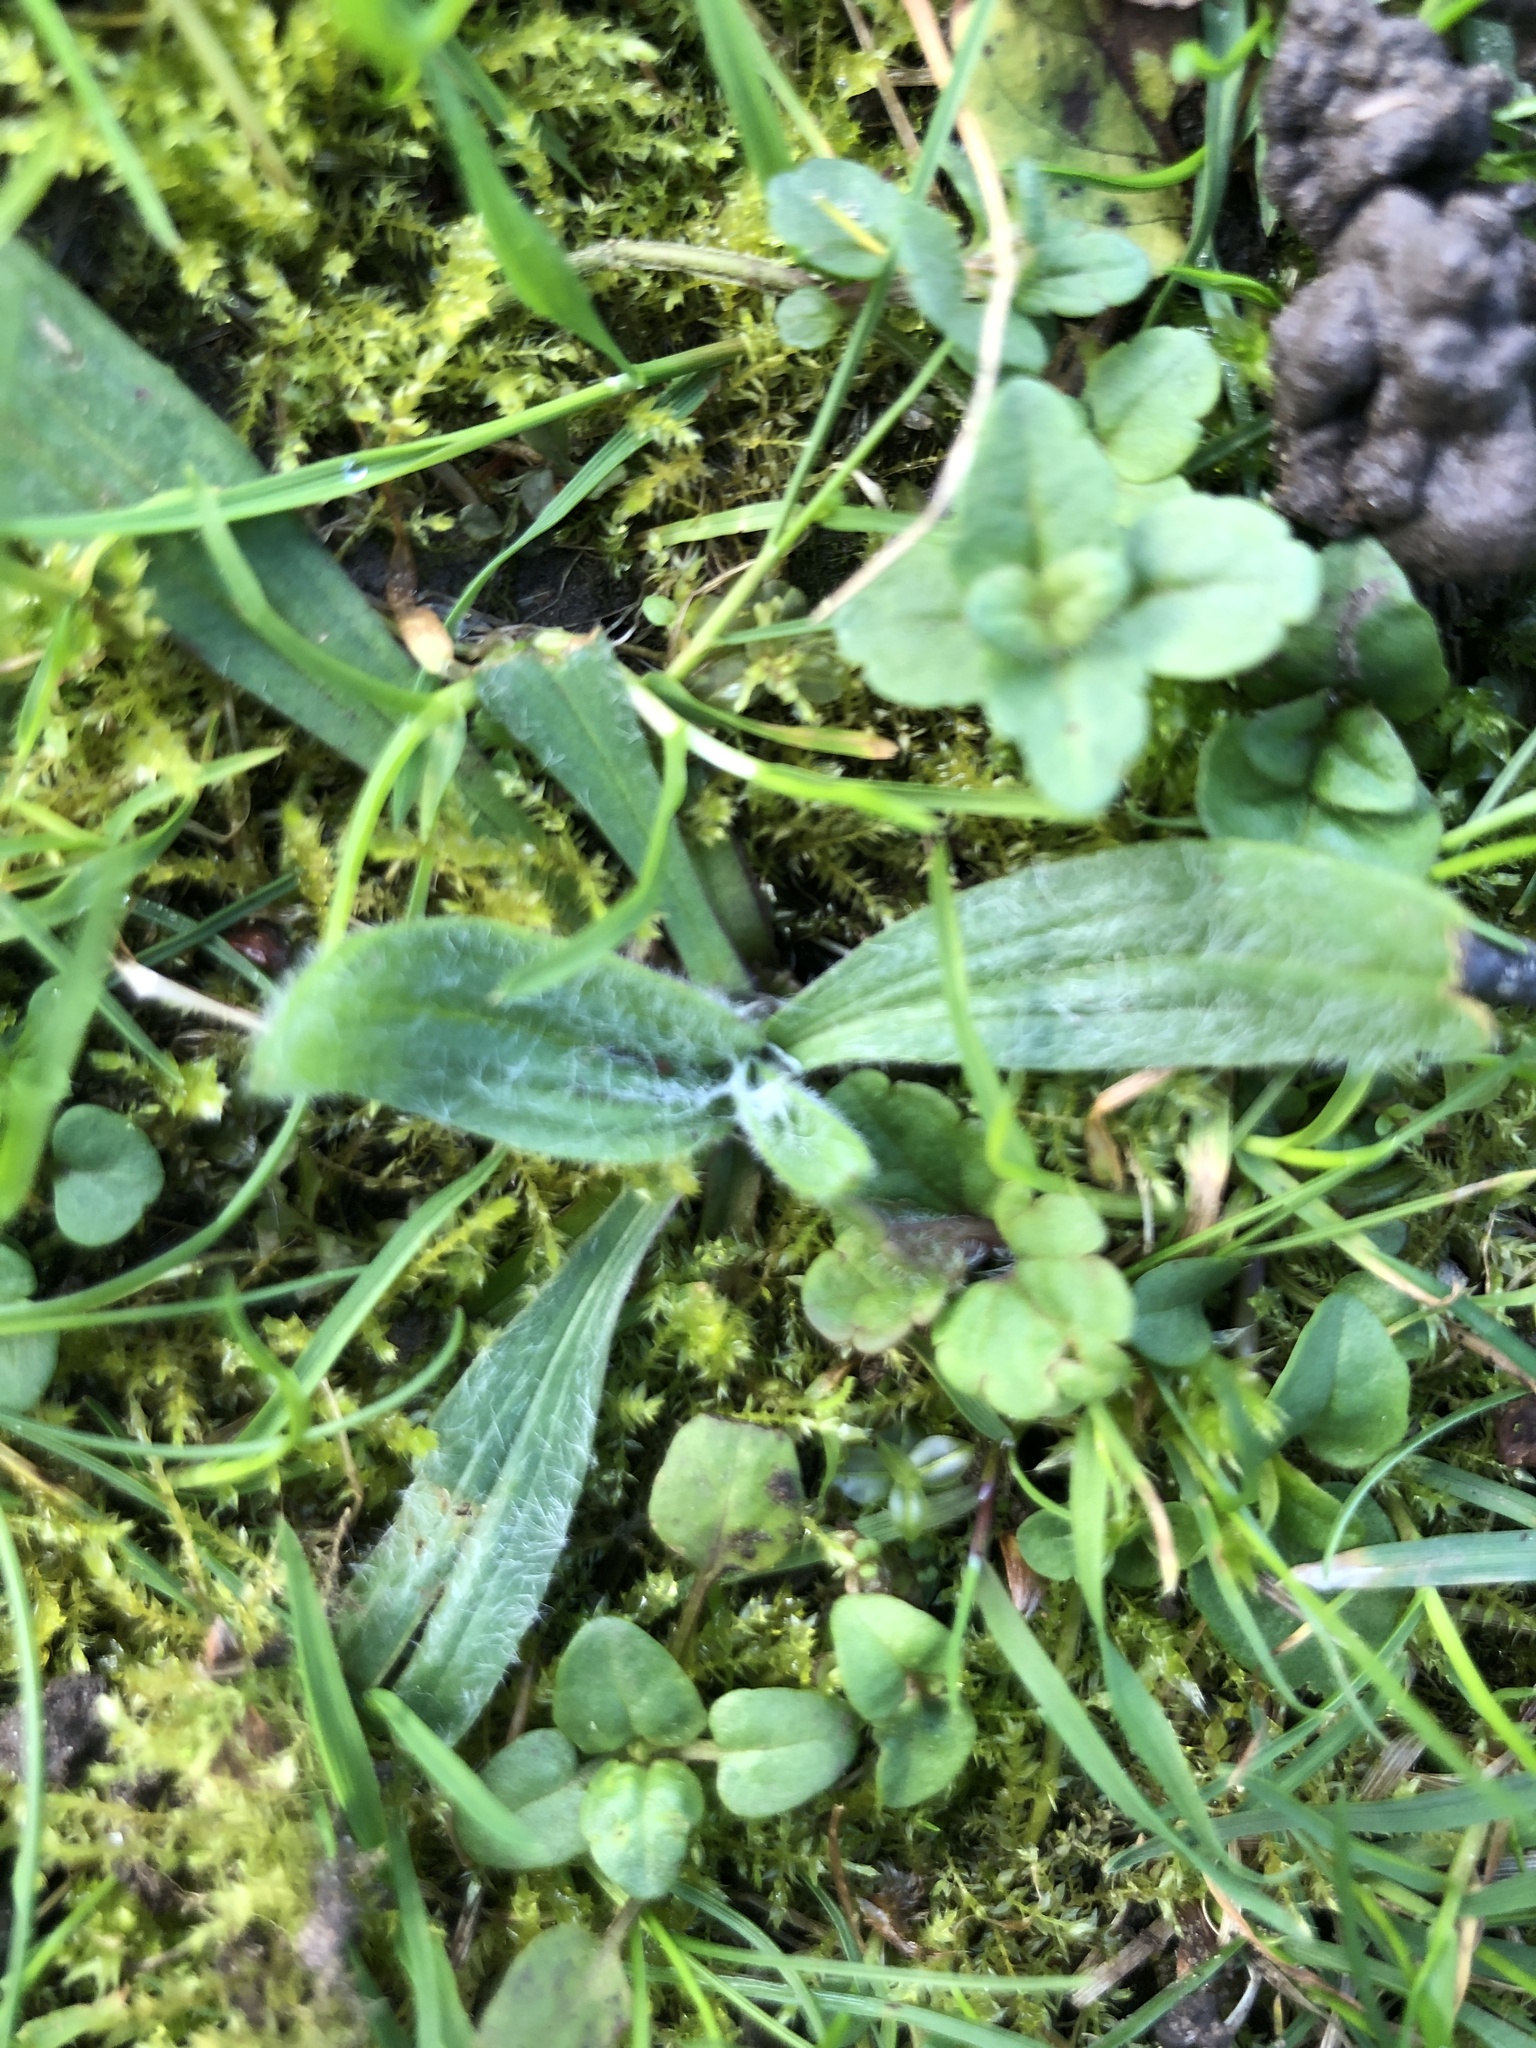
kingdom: Plantae
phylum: Tracheophyta
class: Magnoliopsida
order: Lamiales
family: Plantaginaceae
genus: Plantago
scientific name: Plantago lanceolata
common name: Ribwort plantain
